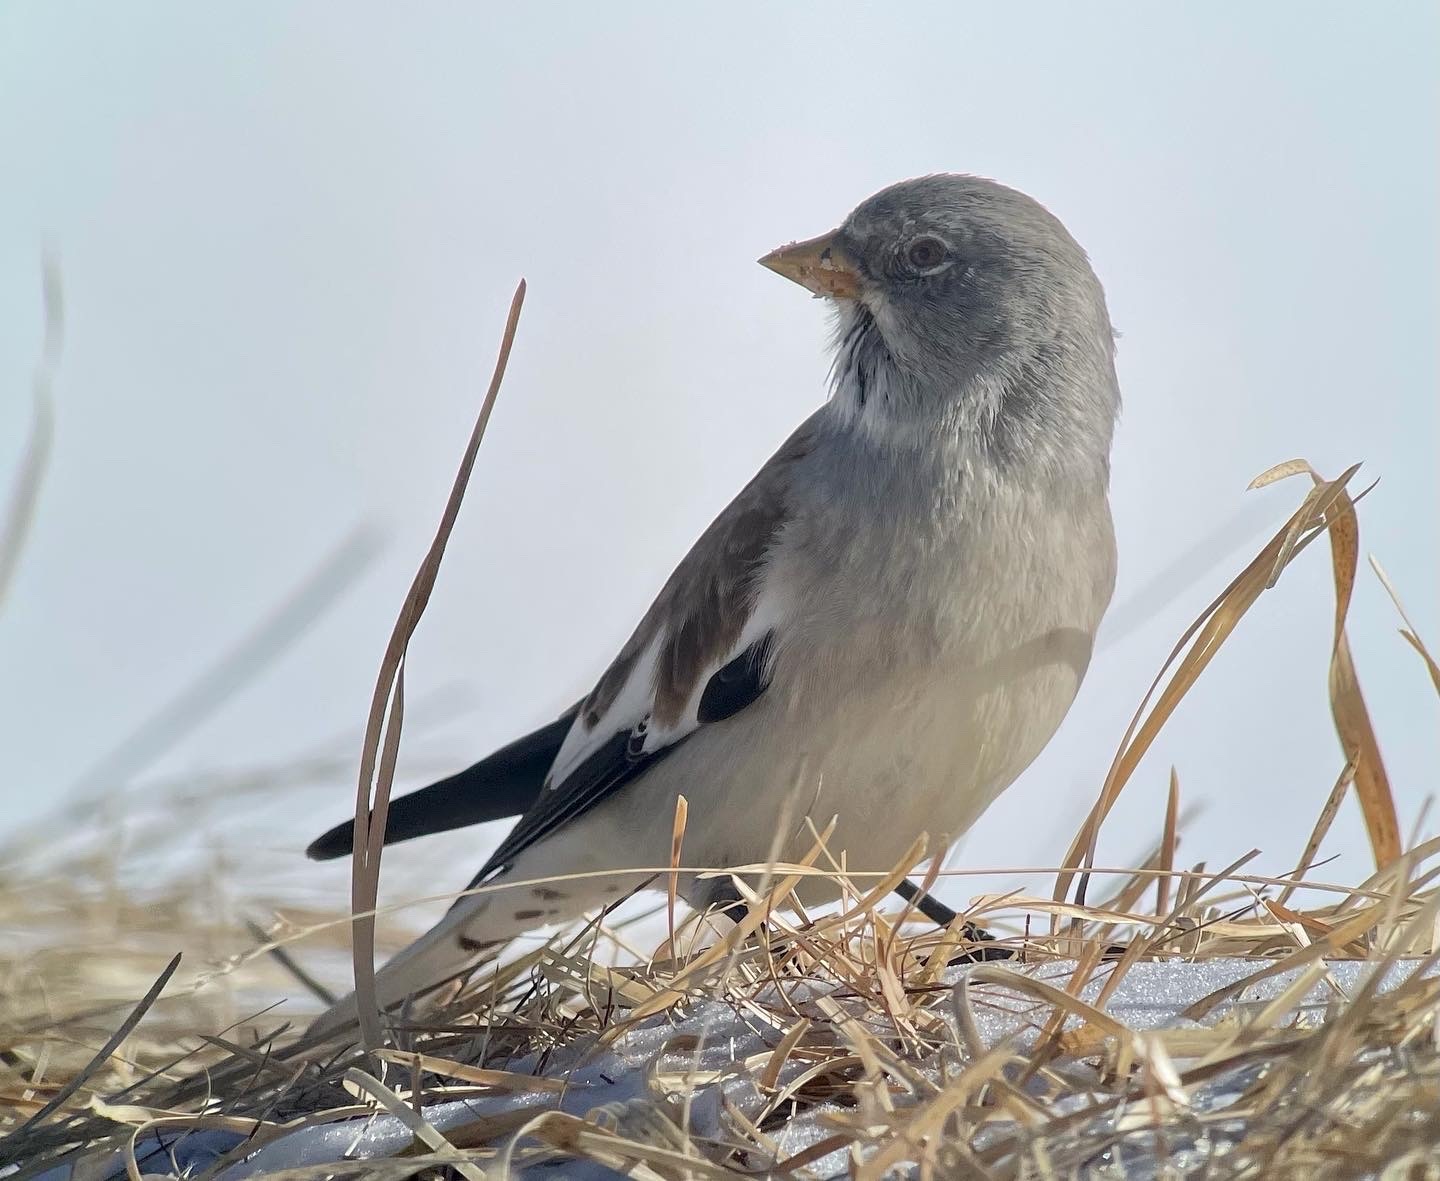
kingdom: Animalia
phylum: Chordata
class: Aves
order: Passeriformes
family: Passeridae
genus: Montifringilla
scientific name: Montifringilla nivalis
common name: White-winged snowfinch
